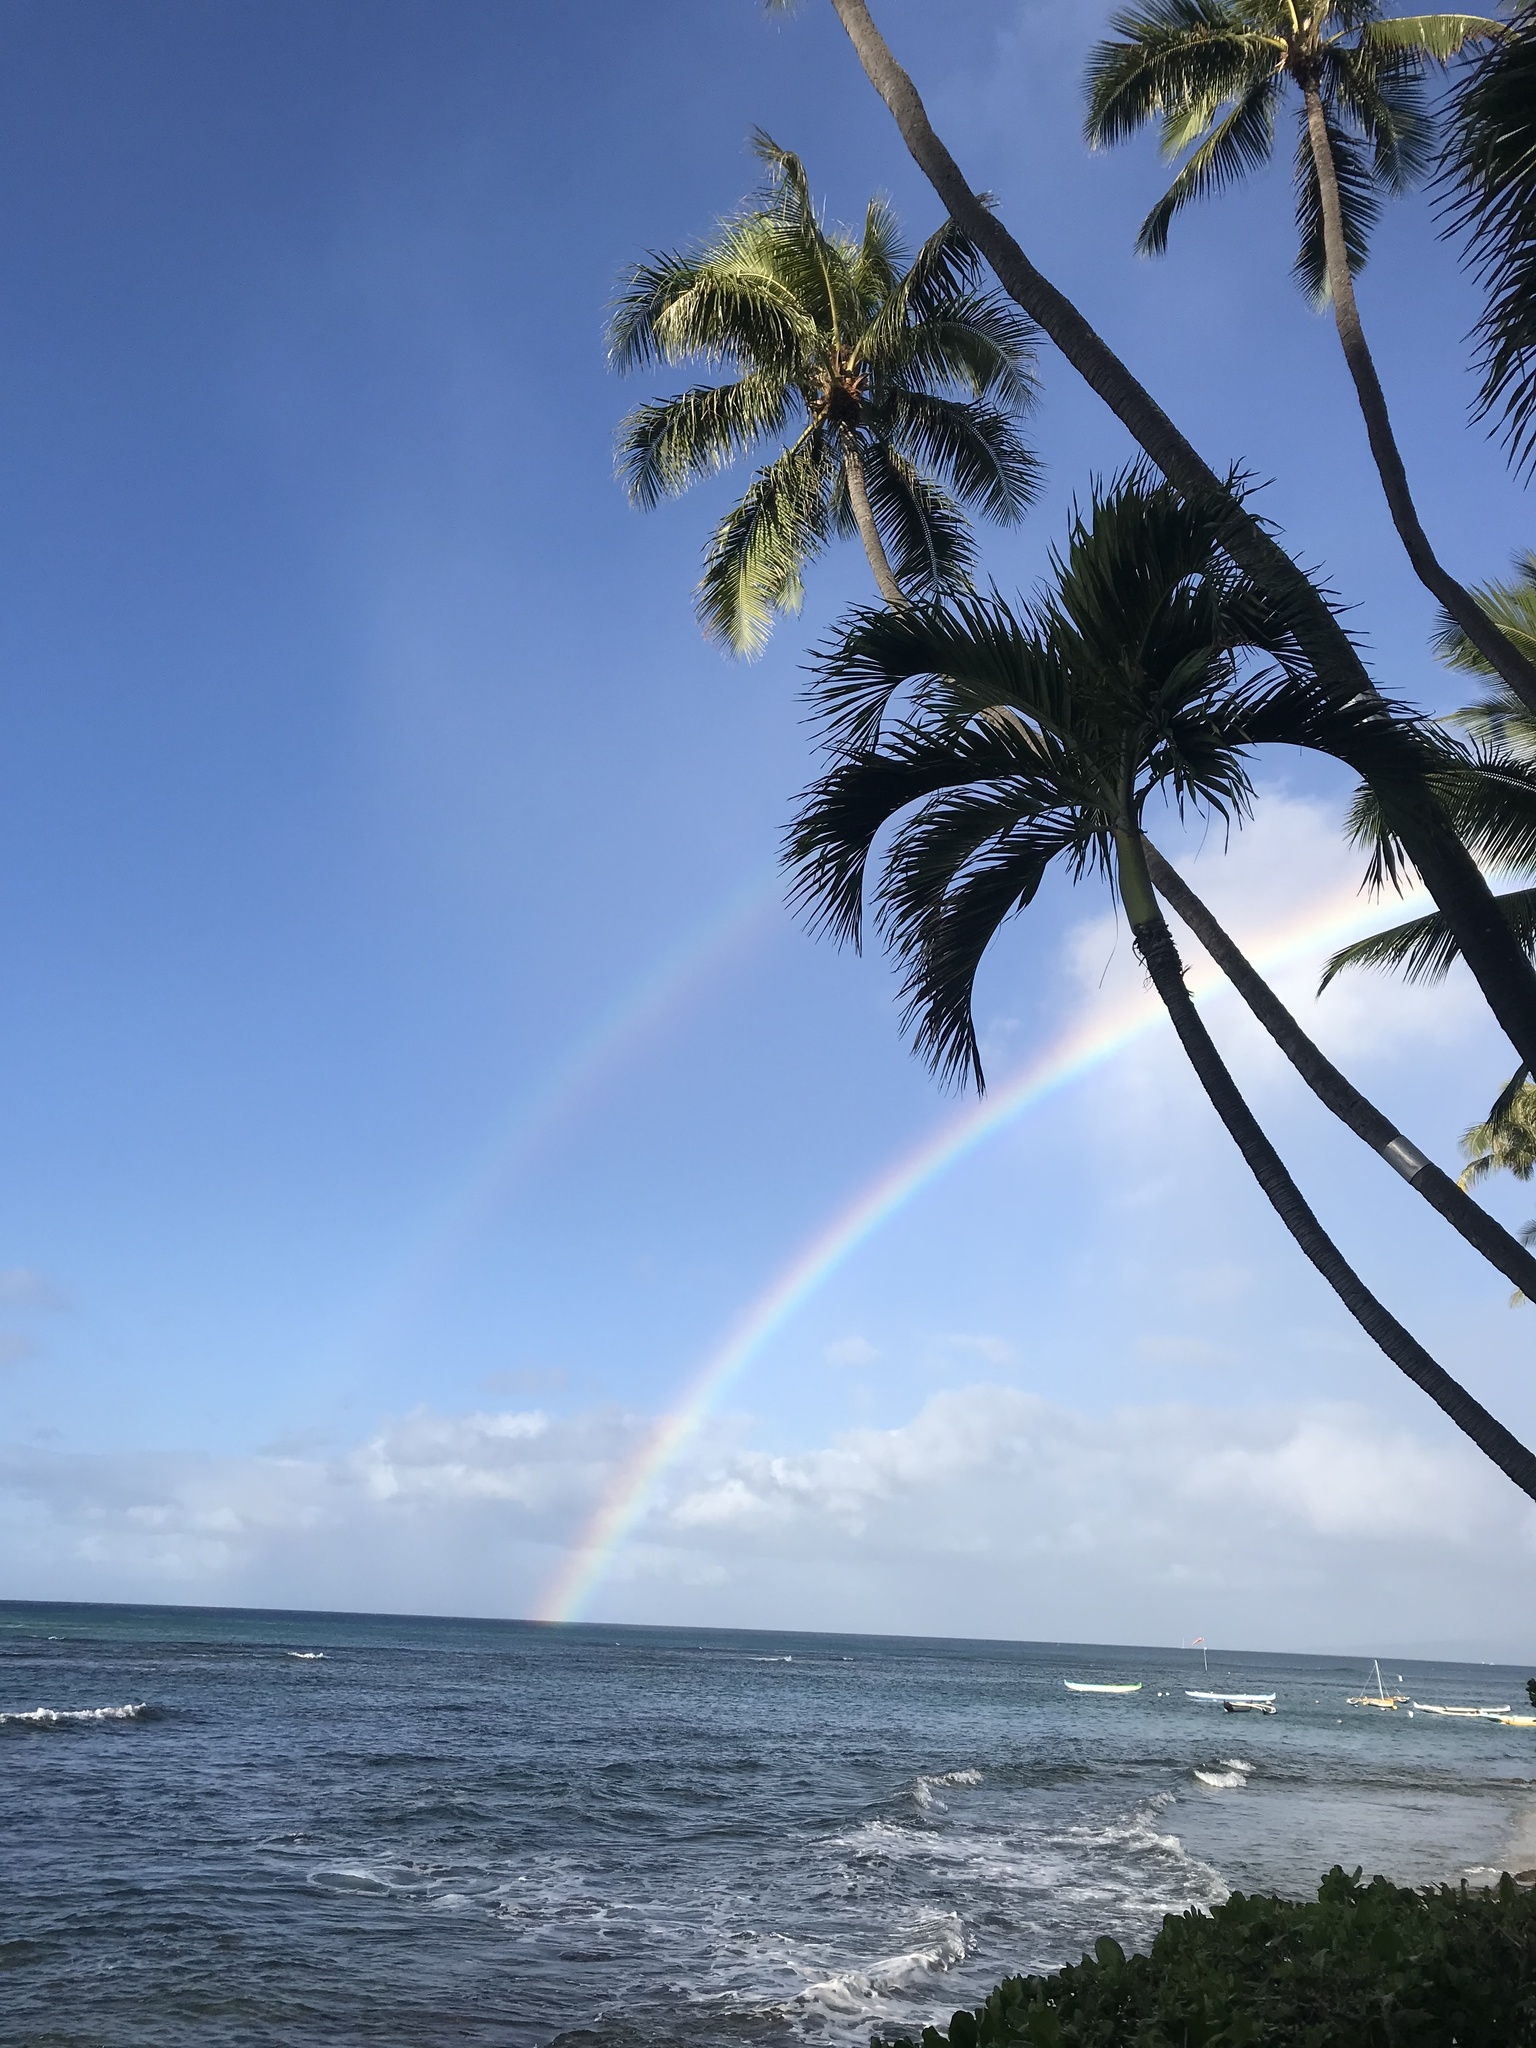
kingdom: Plantae
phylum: Tracheophyta
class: Liliopsida
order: Arecales
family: Arecaceae
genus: Cocos
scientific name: Cocos nucifera
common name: Coconut palm
